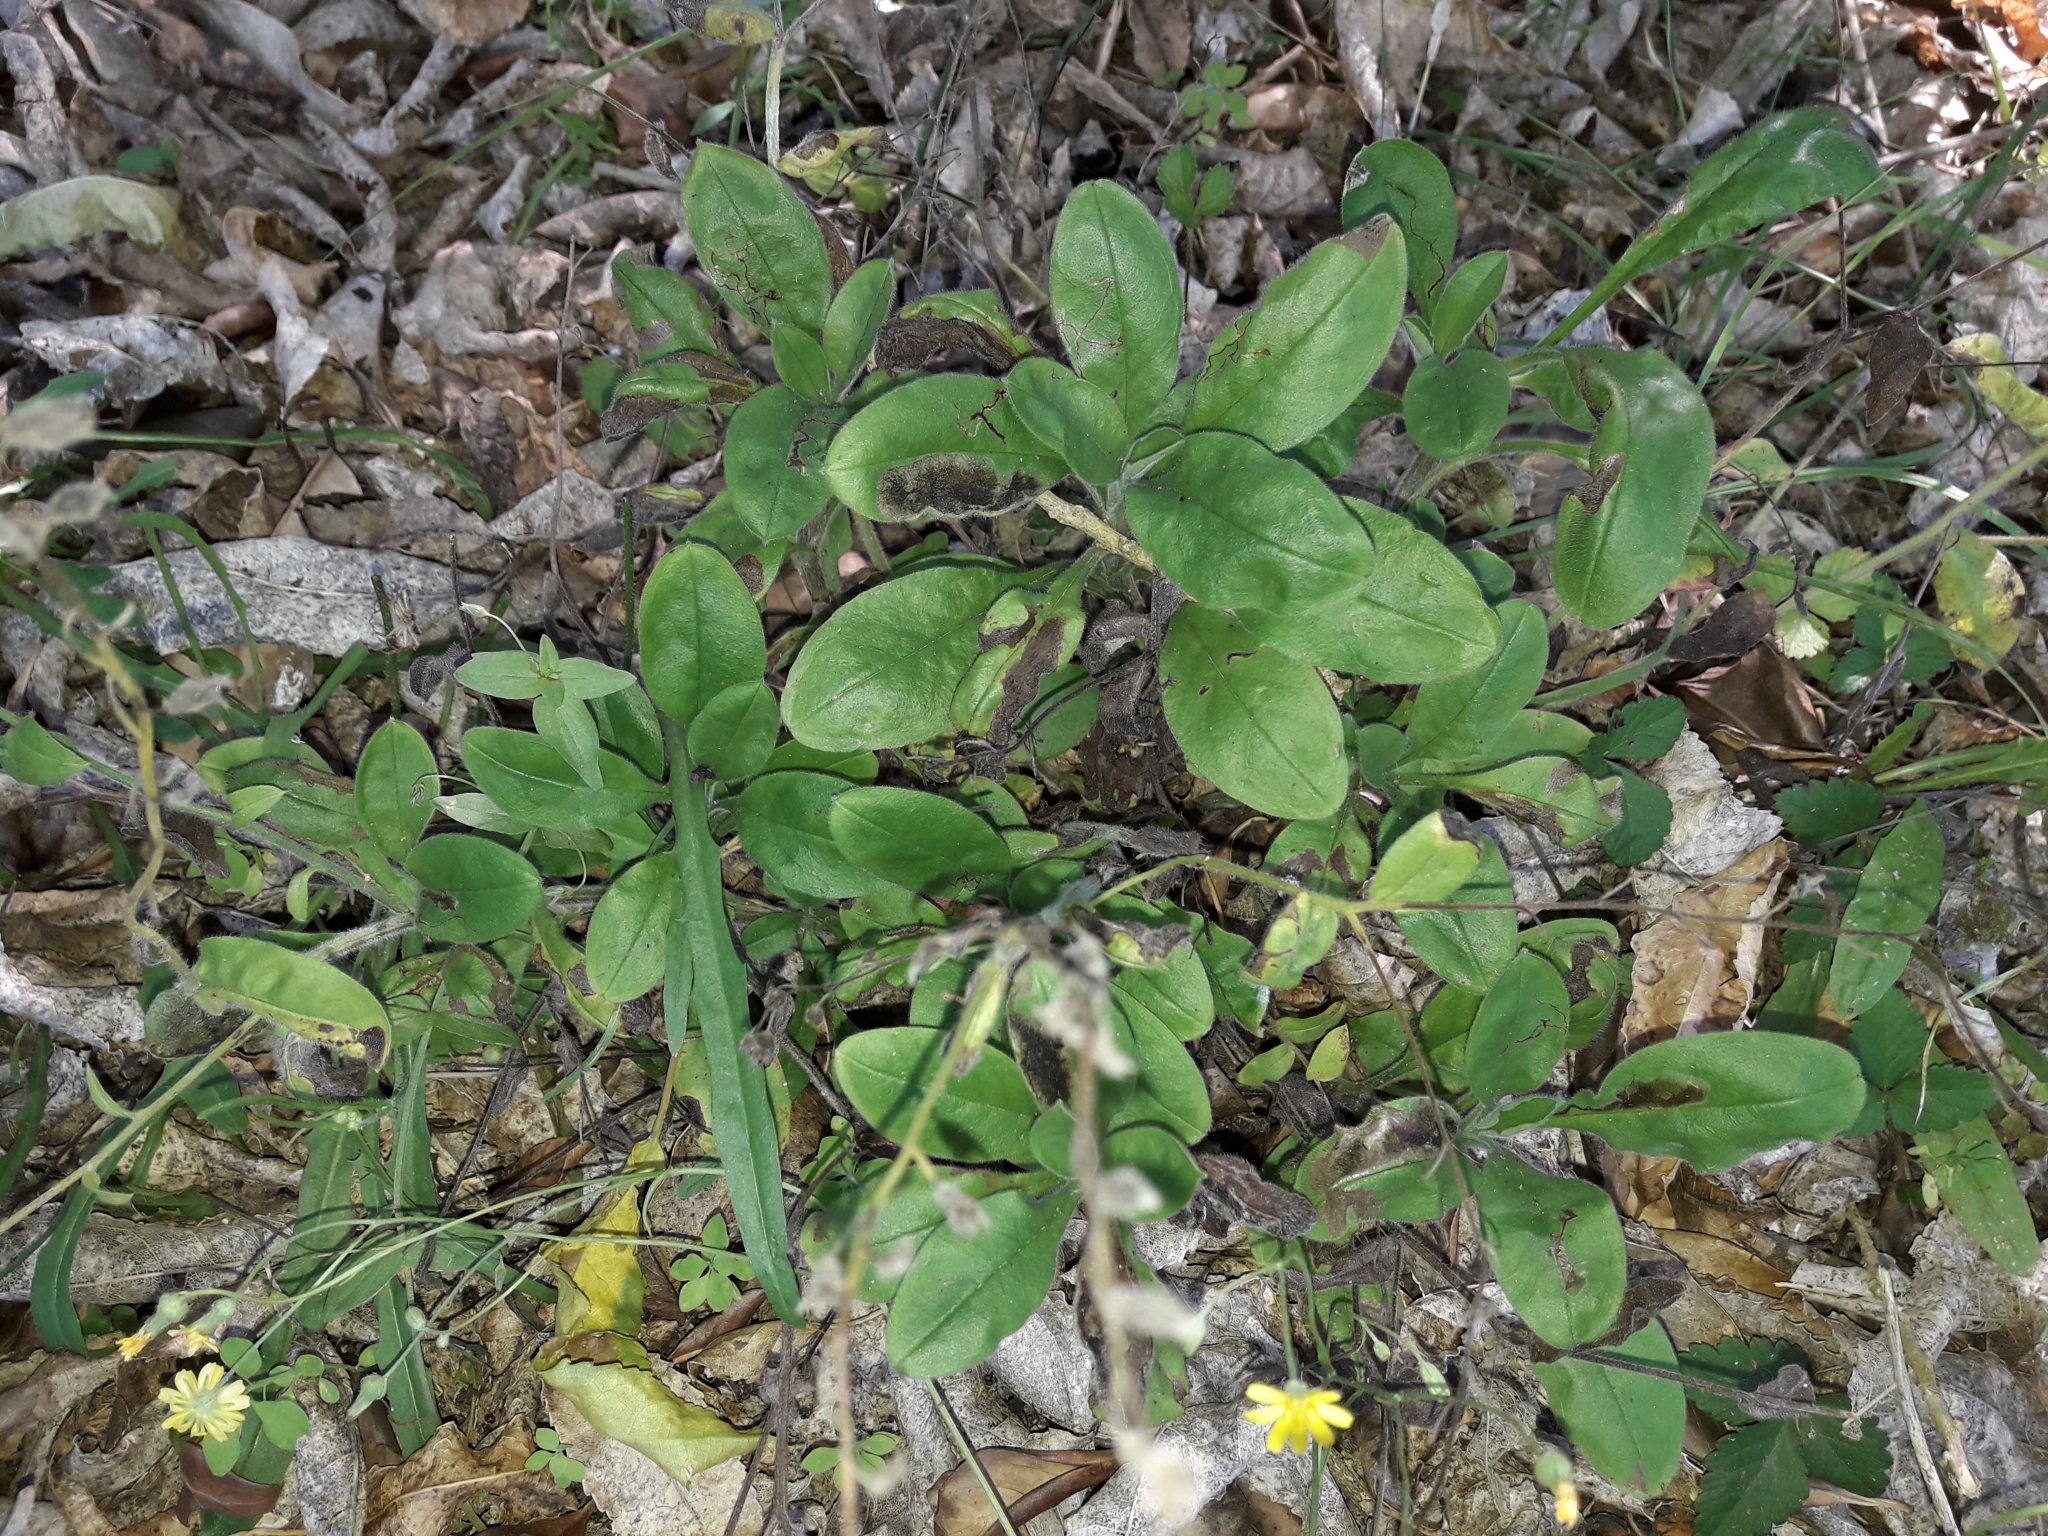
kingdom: Plantae
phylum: Tracheophyta
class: Magnoliopsida
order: Boraginales
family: Boraginaceae
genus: Myosotis
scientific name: Myosotis sylvatica
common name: Wood forget-me-not
